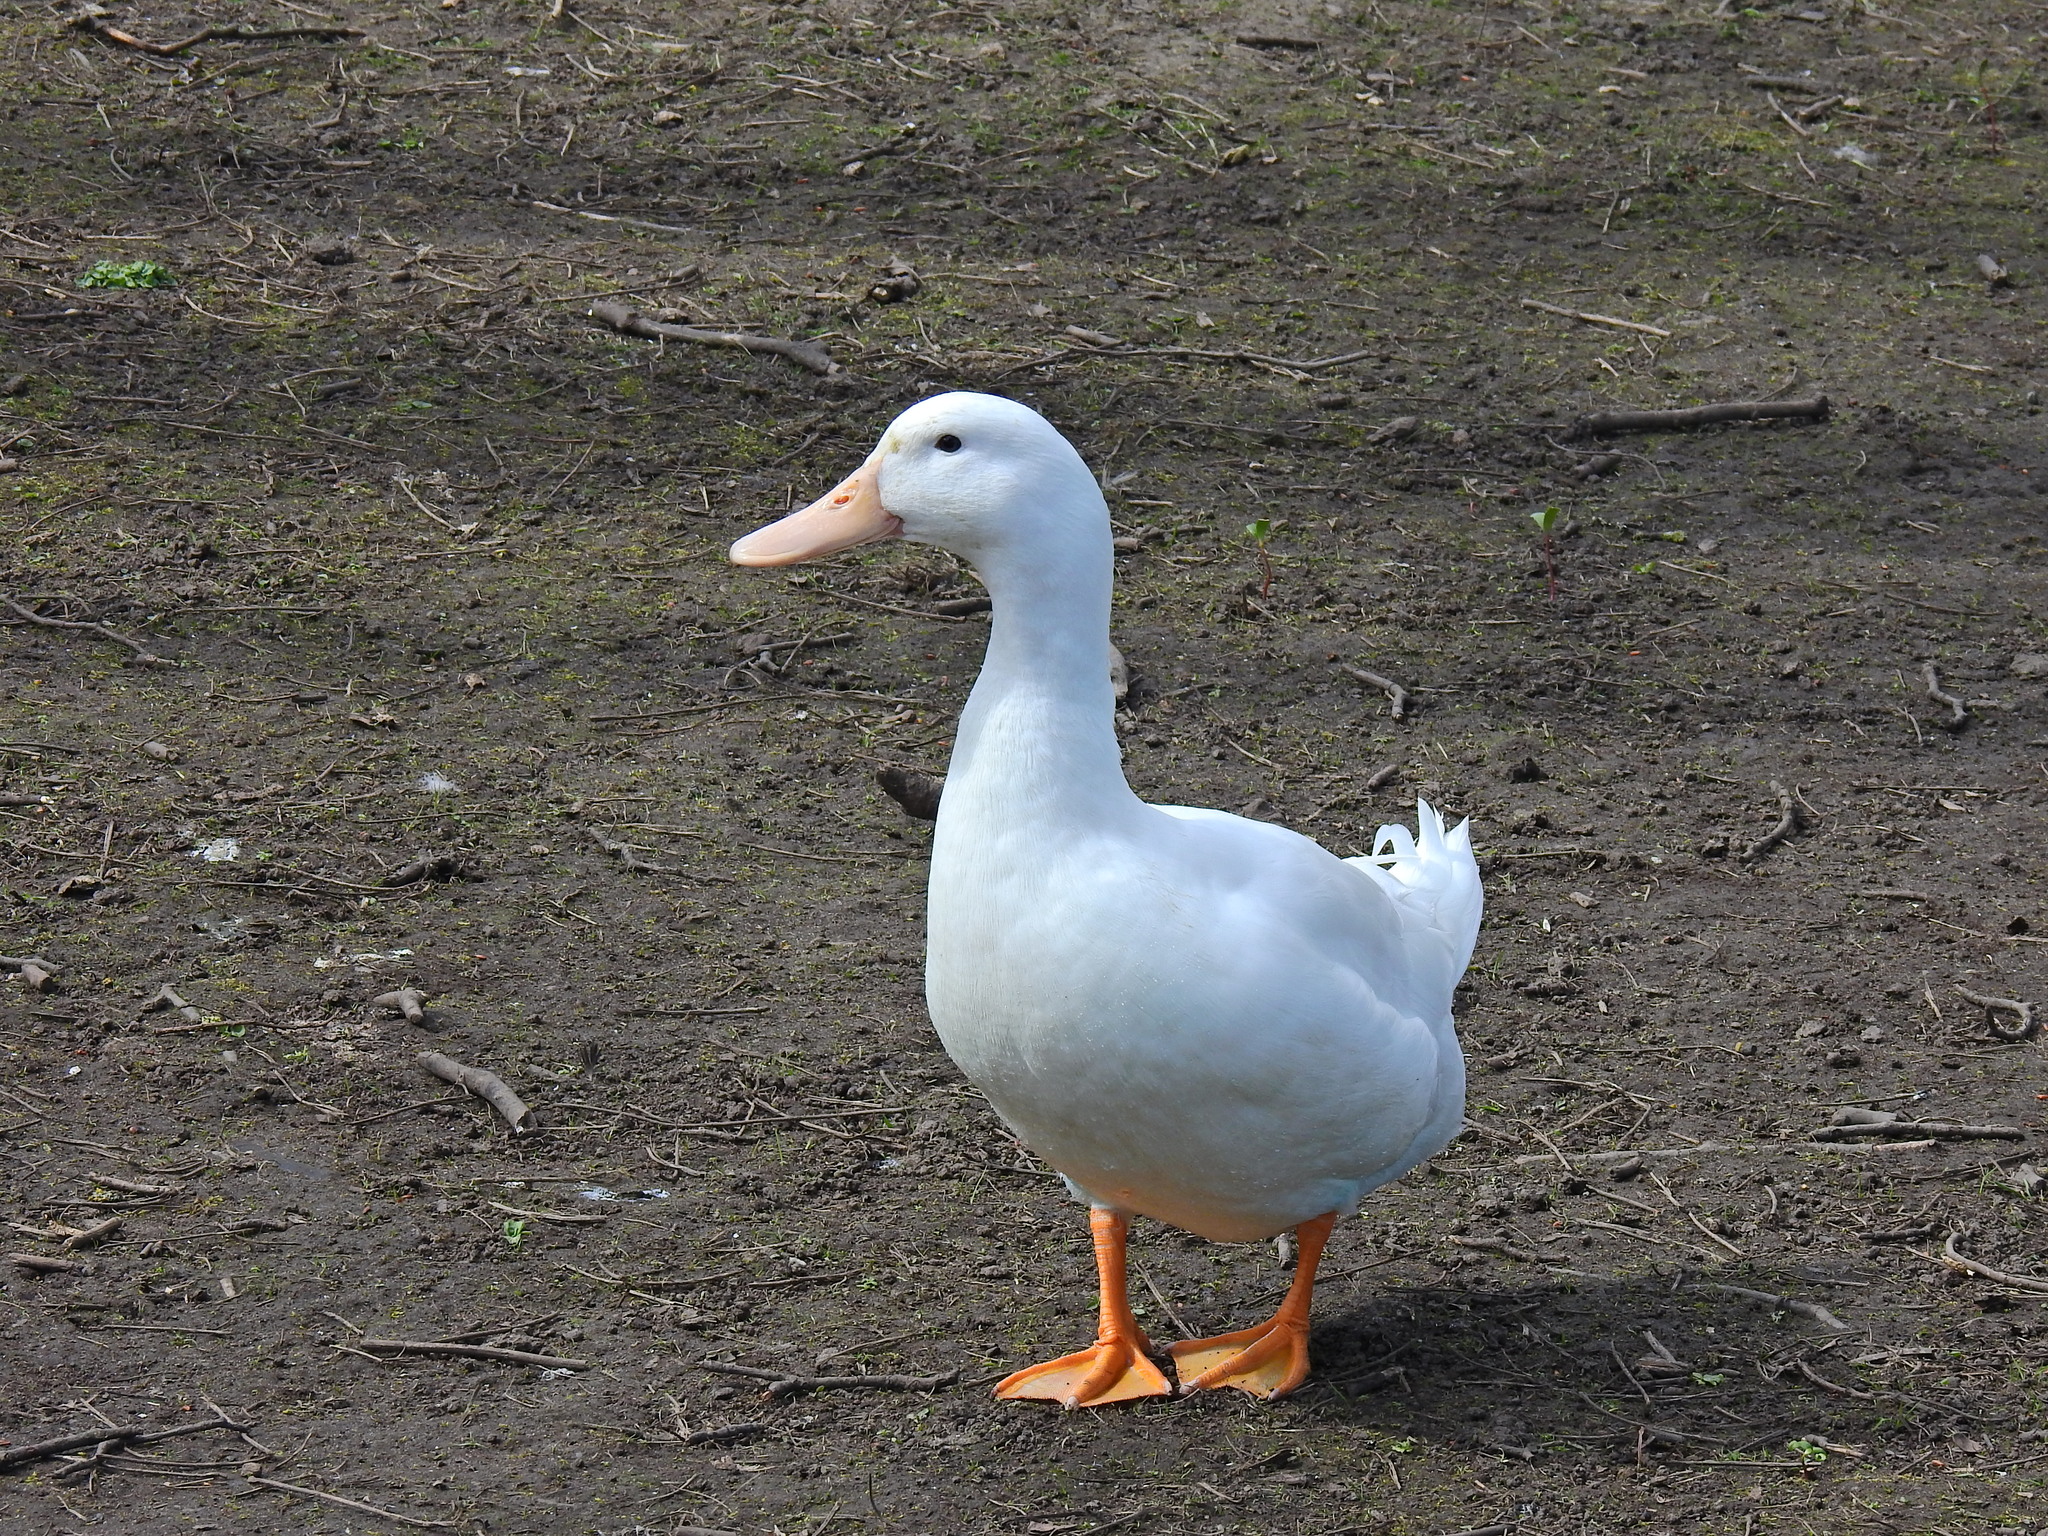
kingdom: Animalia
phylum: Chordata
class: Aves
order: Anseriformes
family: Anatidae
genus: Anas
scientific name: Anas platyrhynchos
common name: Mallard
